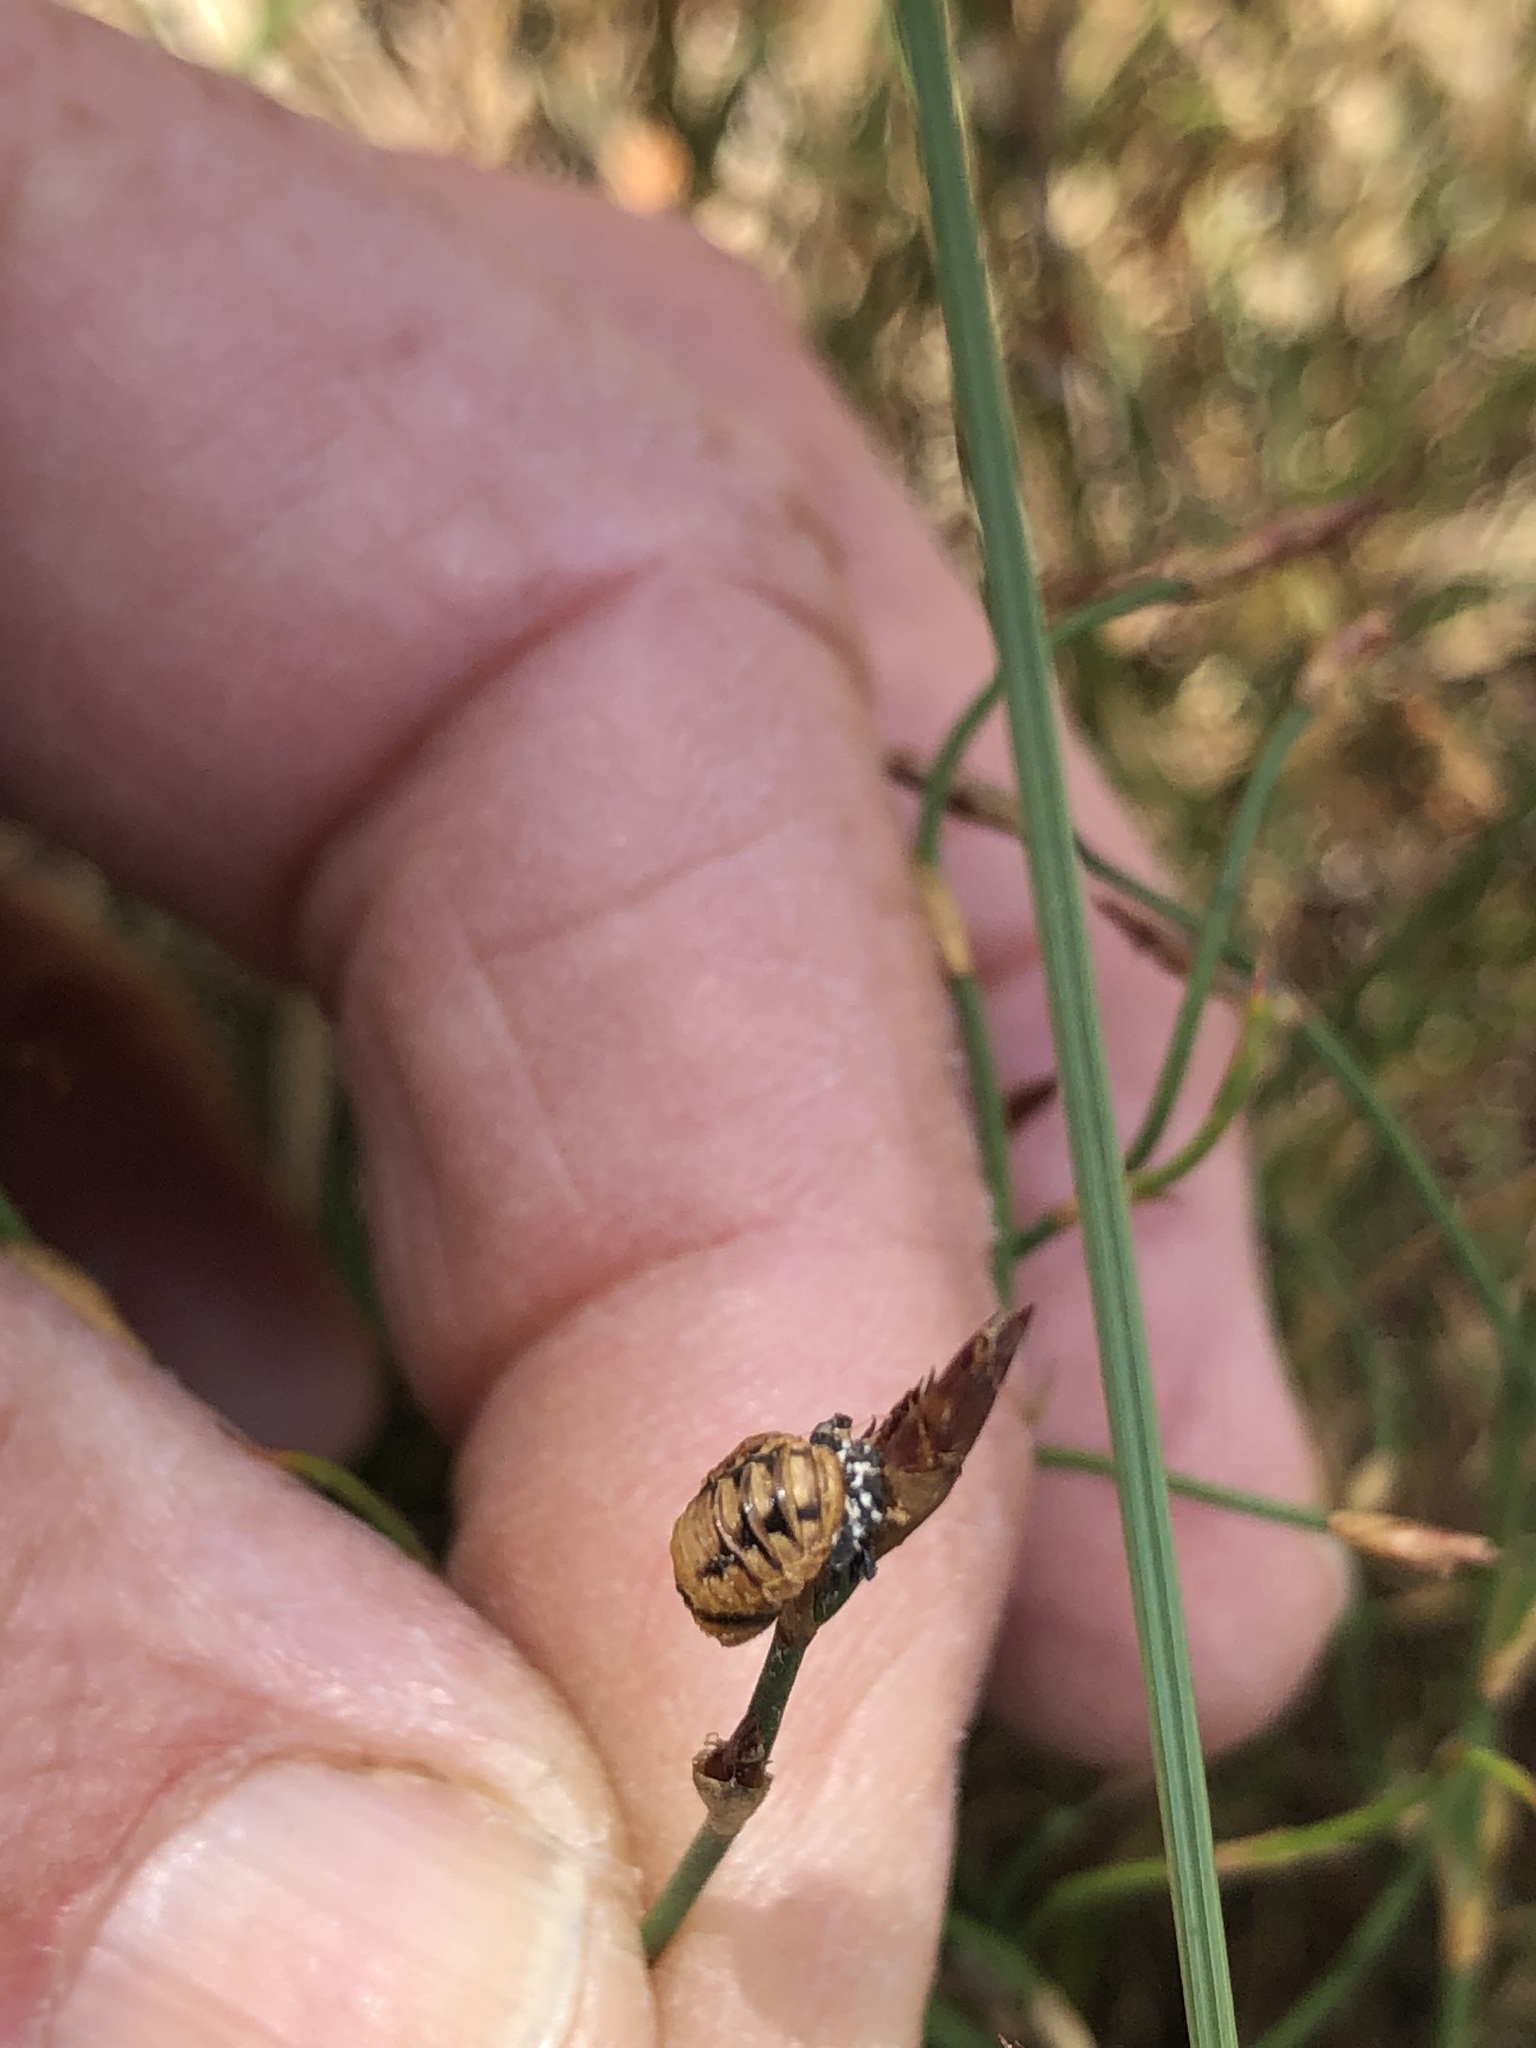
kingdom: Animalia
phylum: Arthropoda
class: Insecta
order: Coleoptera
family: Coccinellidae
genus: Harmonia
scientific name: Harmonia axyridis
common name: Harlequin ladybird
